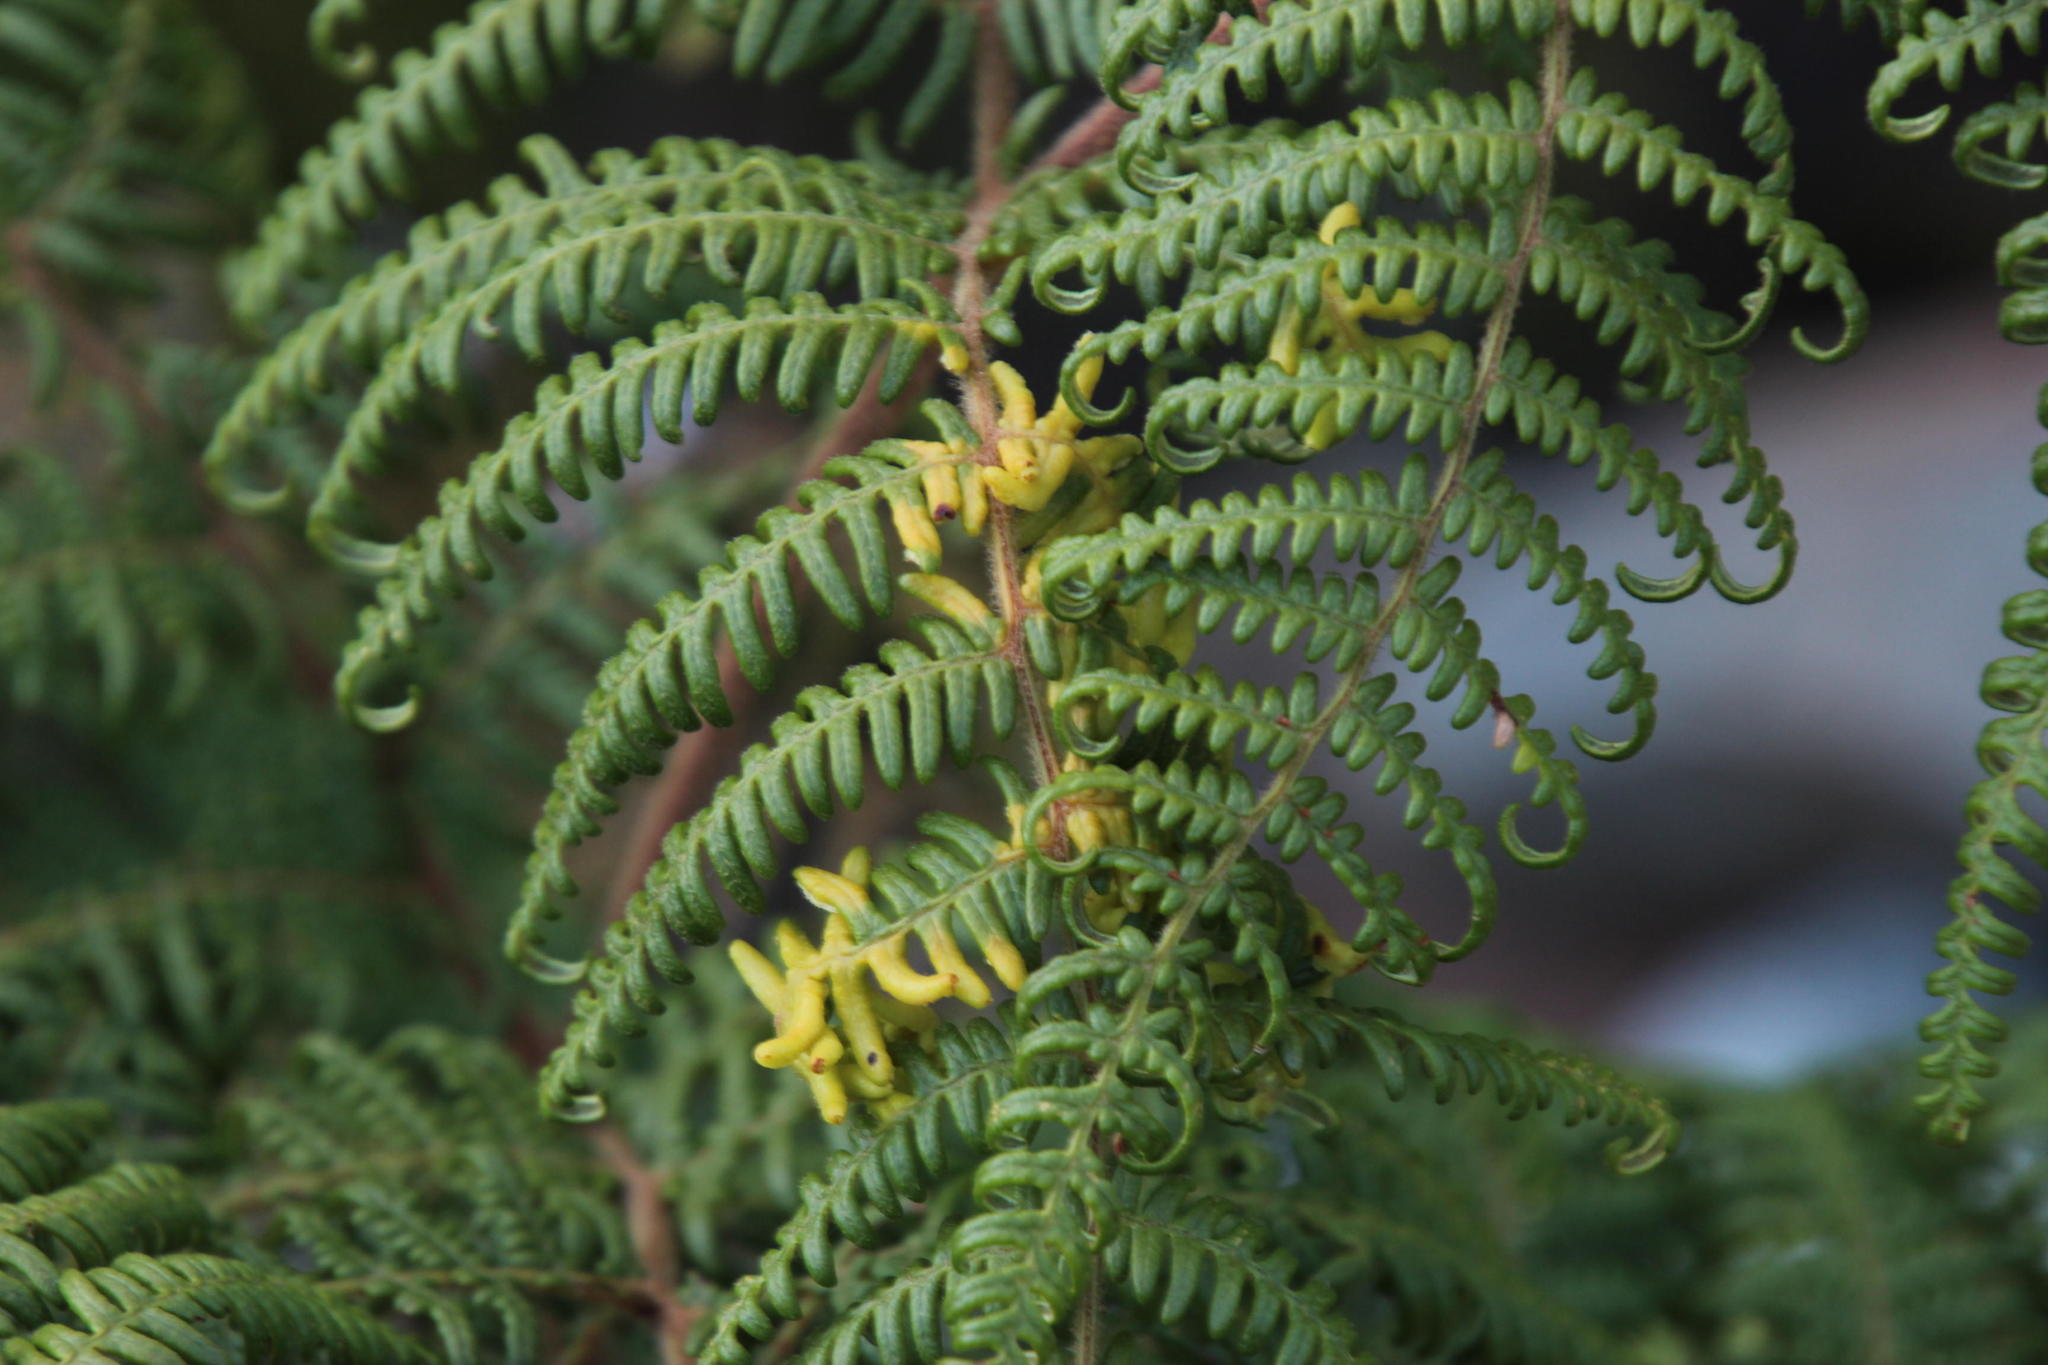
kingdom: Plantae
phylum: Tracheophyta
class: Polypodiopsida
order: Polypodiales
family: Dennstaedtiaceae
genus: Pteridium
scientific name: Pteridium aquilinum
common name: Bracken
